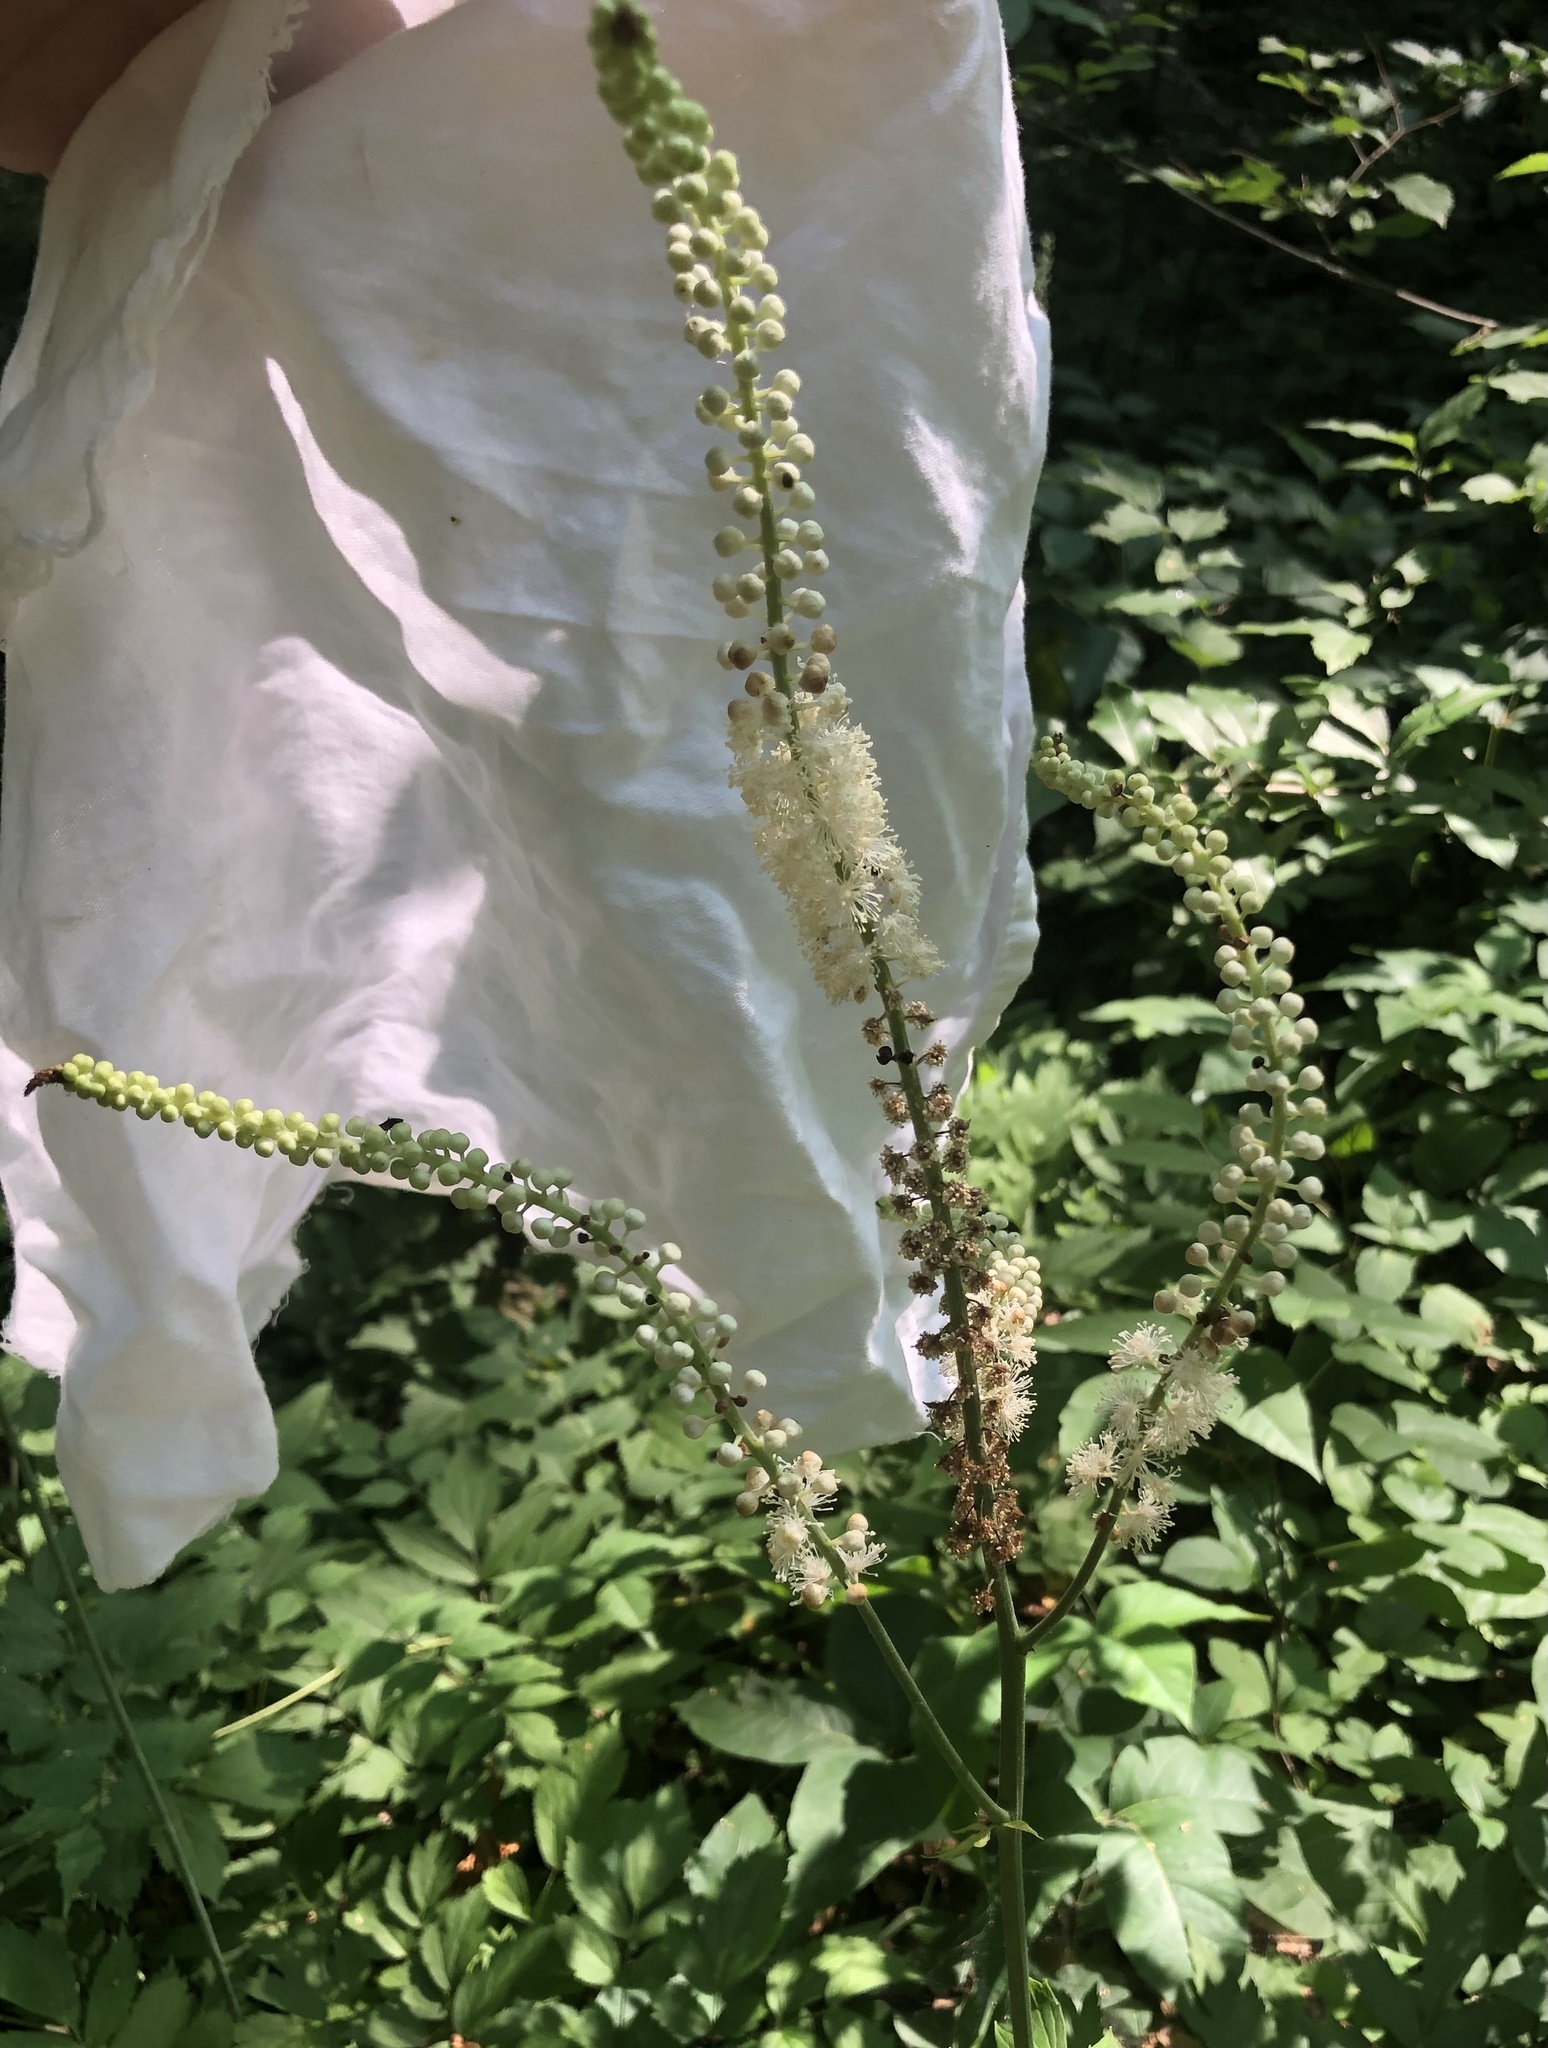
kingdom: Plantae
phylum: Tracheophyta
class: Magnoliopsida
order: Ranunculales
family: Ranunculaceae
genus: Actaea
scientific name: Actaea racemosa
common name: Black cohosh
